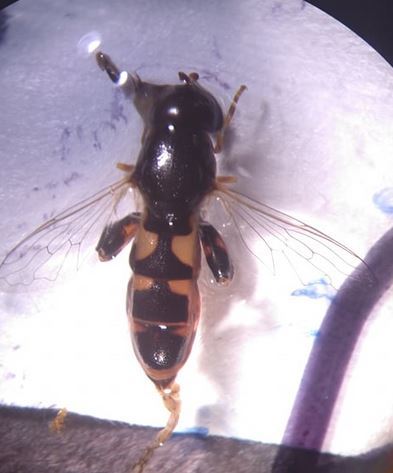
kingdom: Animalia
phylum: Arthropoda
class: Insecta
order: Diptera
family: Syrphidae
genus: Syritta
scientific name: Syritta pipiens
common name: Hover fly
